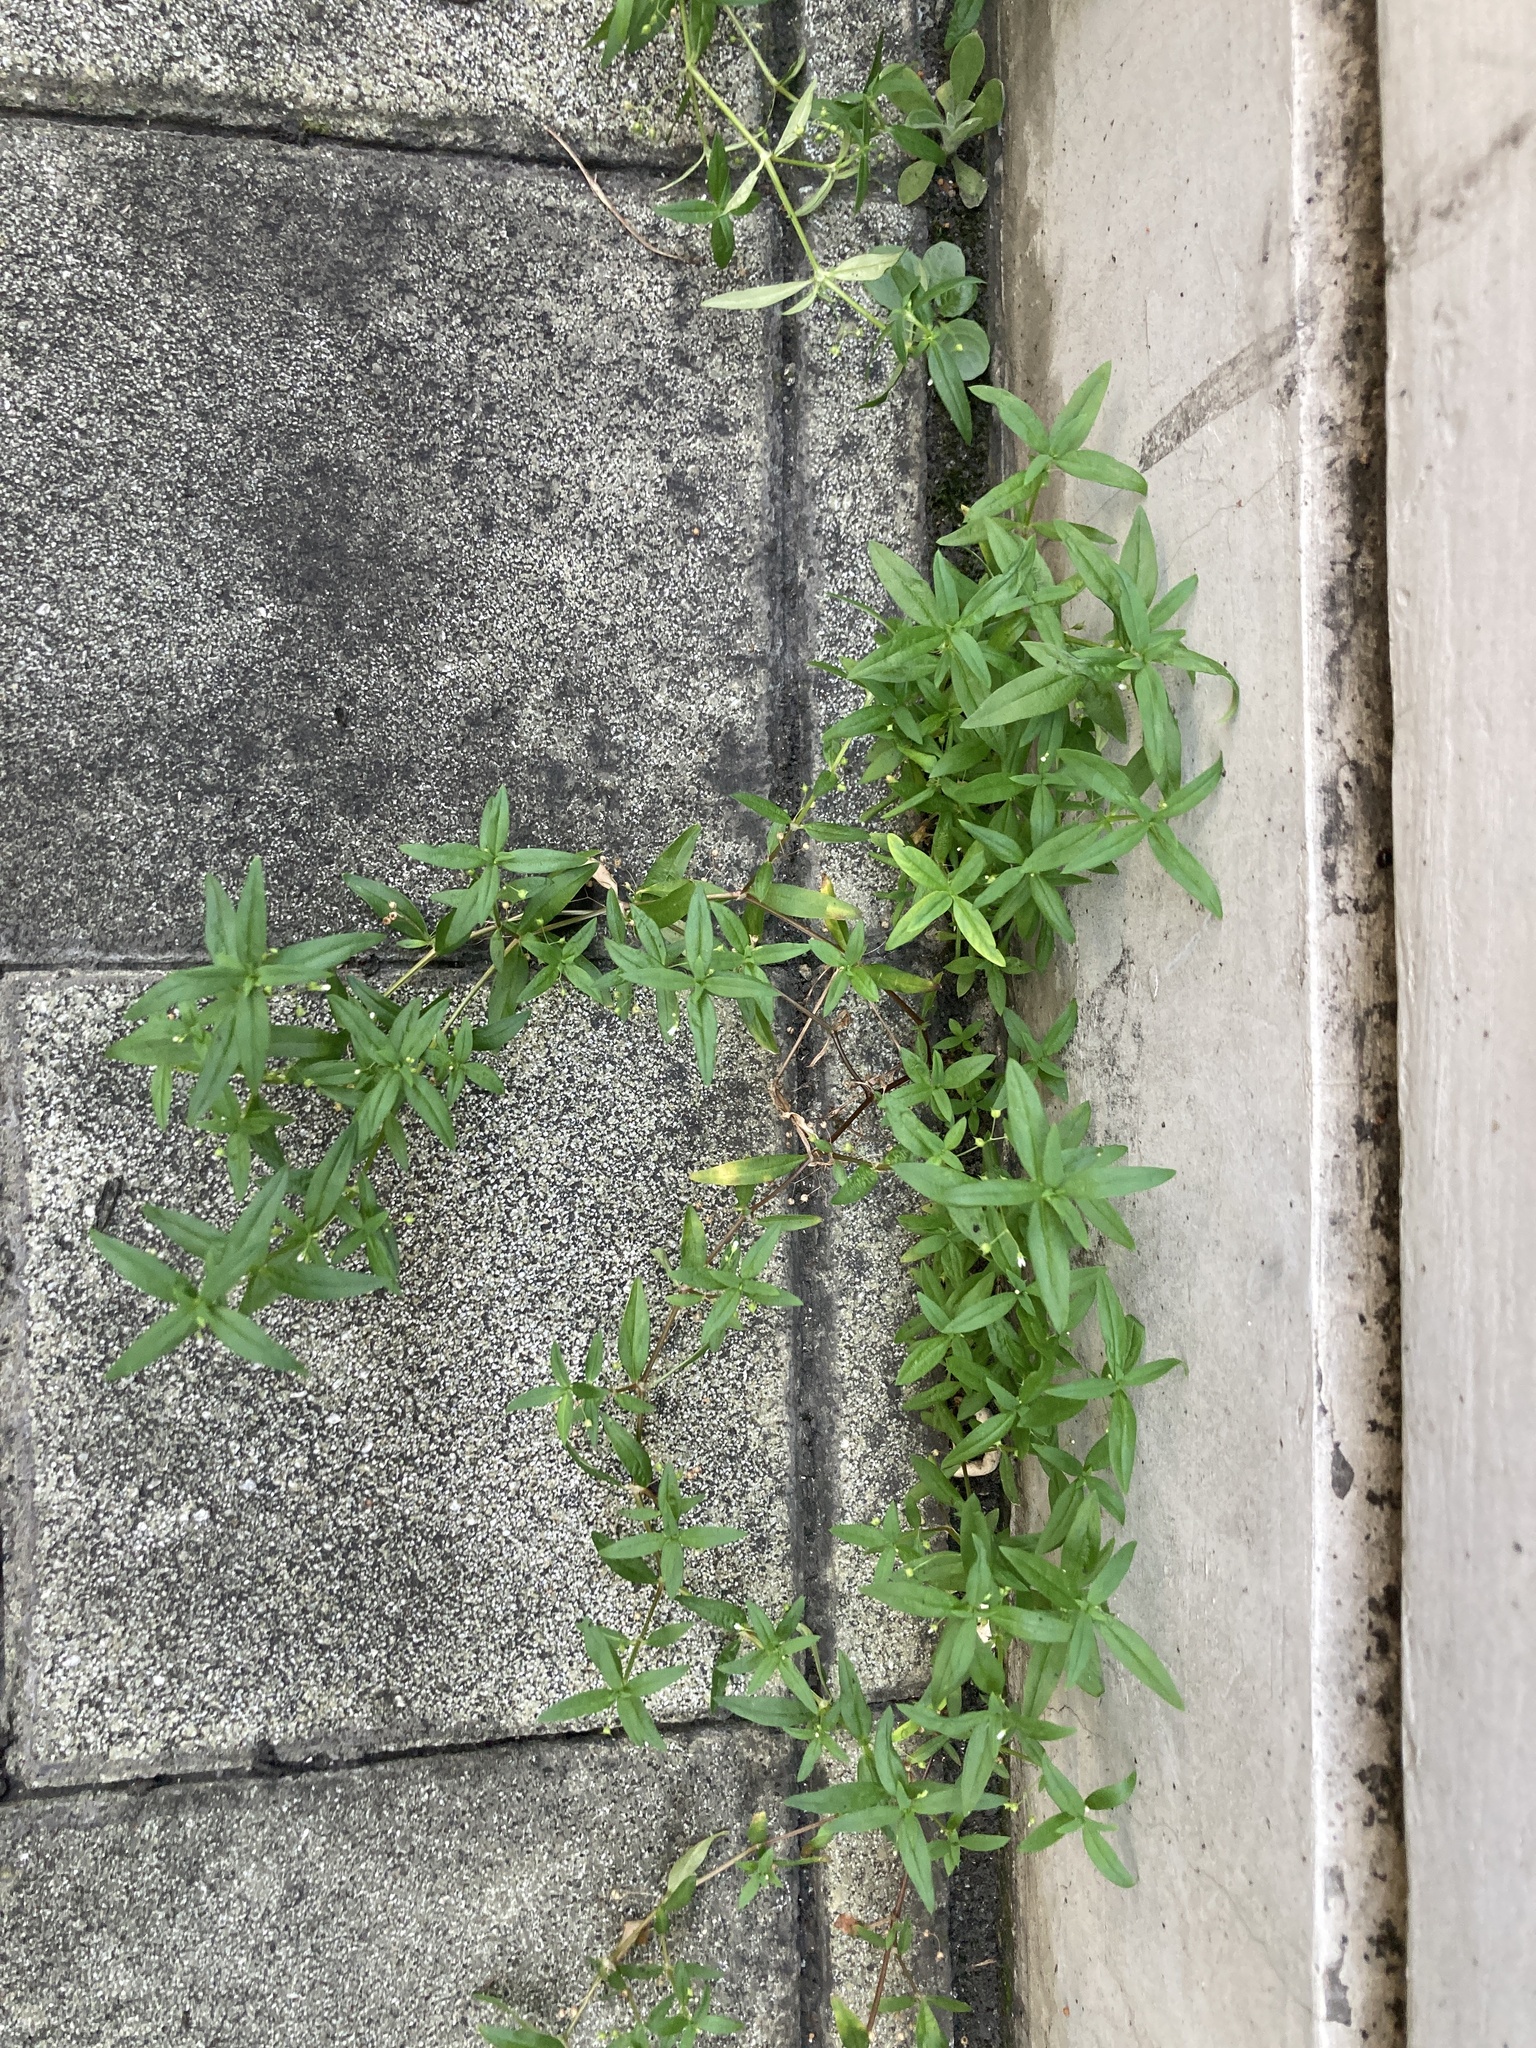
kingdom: Plantae
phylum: Tracheophyta
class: Magnoliopsida
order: Gentianales
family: Rubiaceae
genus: Oldenlandia
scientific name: Oldenlandia corymbosa
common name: Flat-top mille graines
